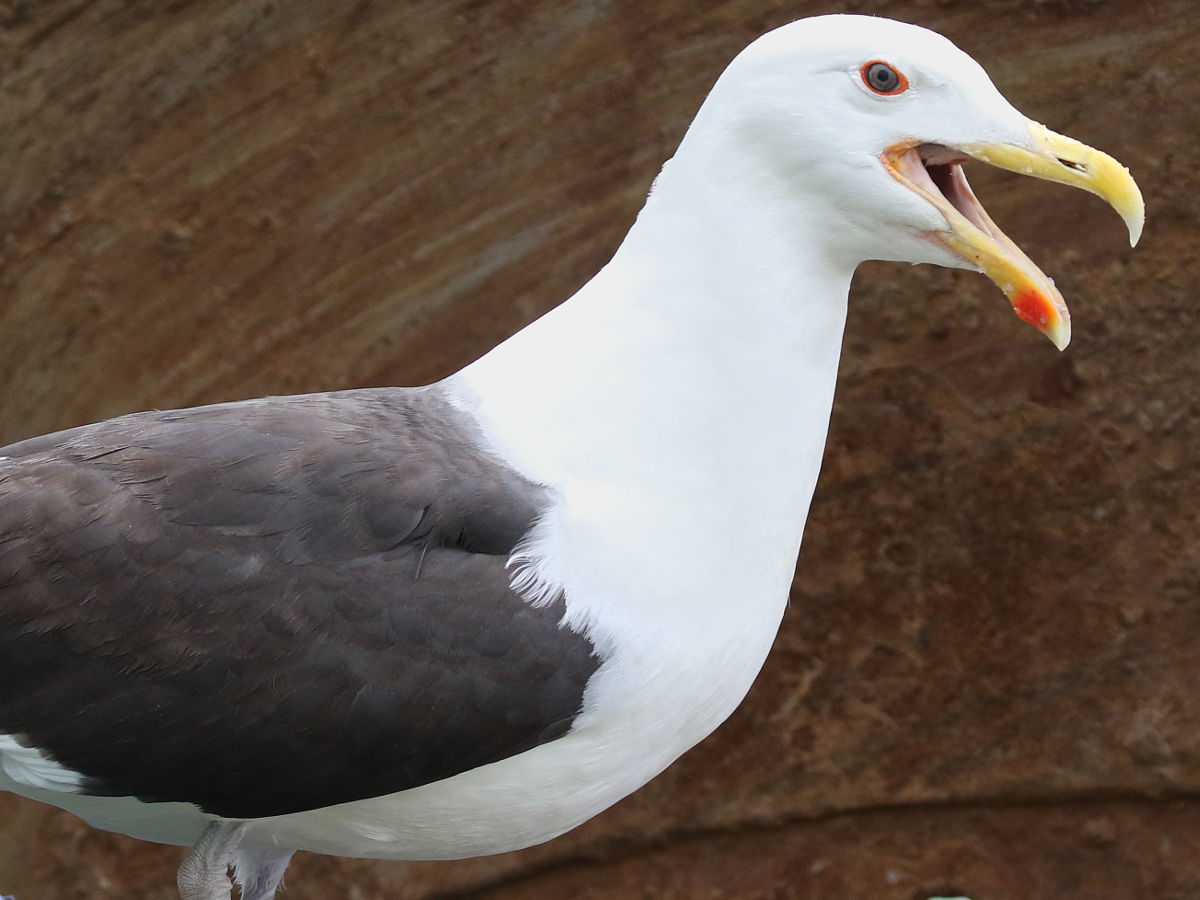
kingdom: Animalia
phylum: Chordata
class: Aves
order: Charadriiformes
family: Laridae
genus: Larus
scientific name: Larus marinus
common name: Great black-backed gull
